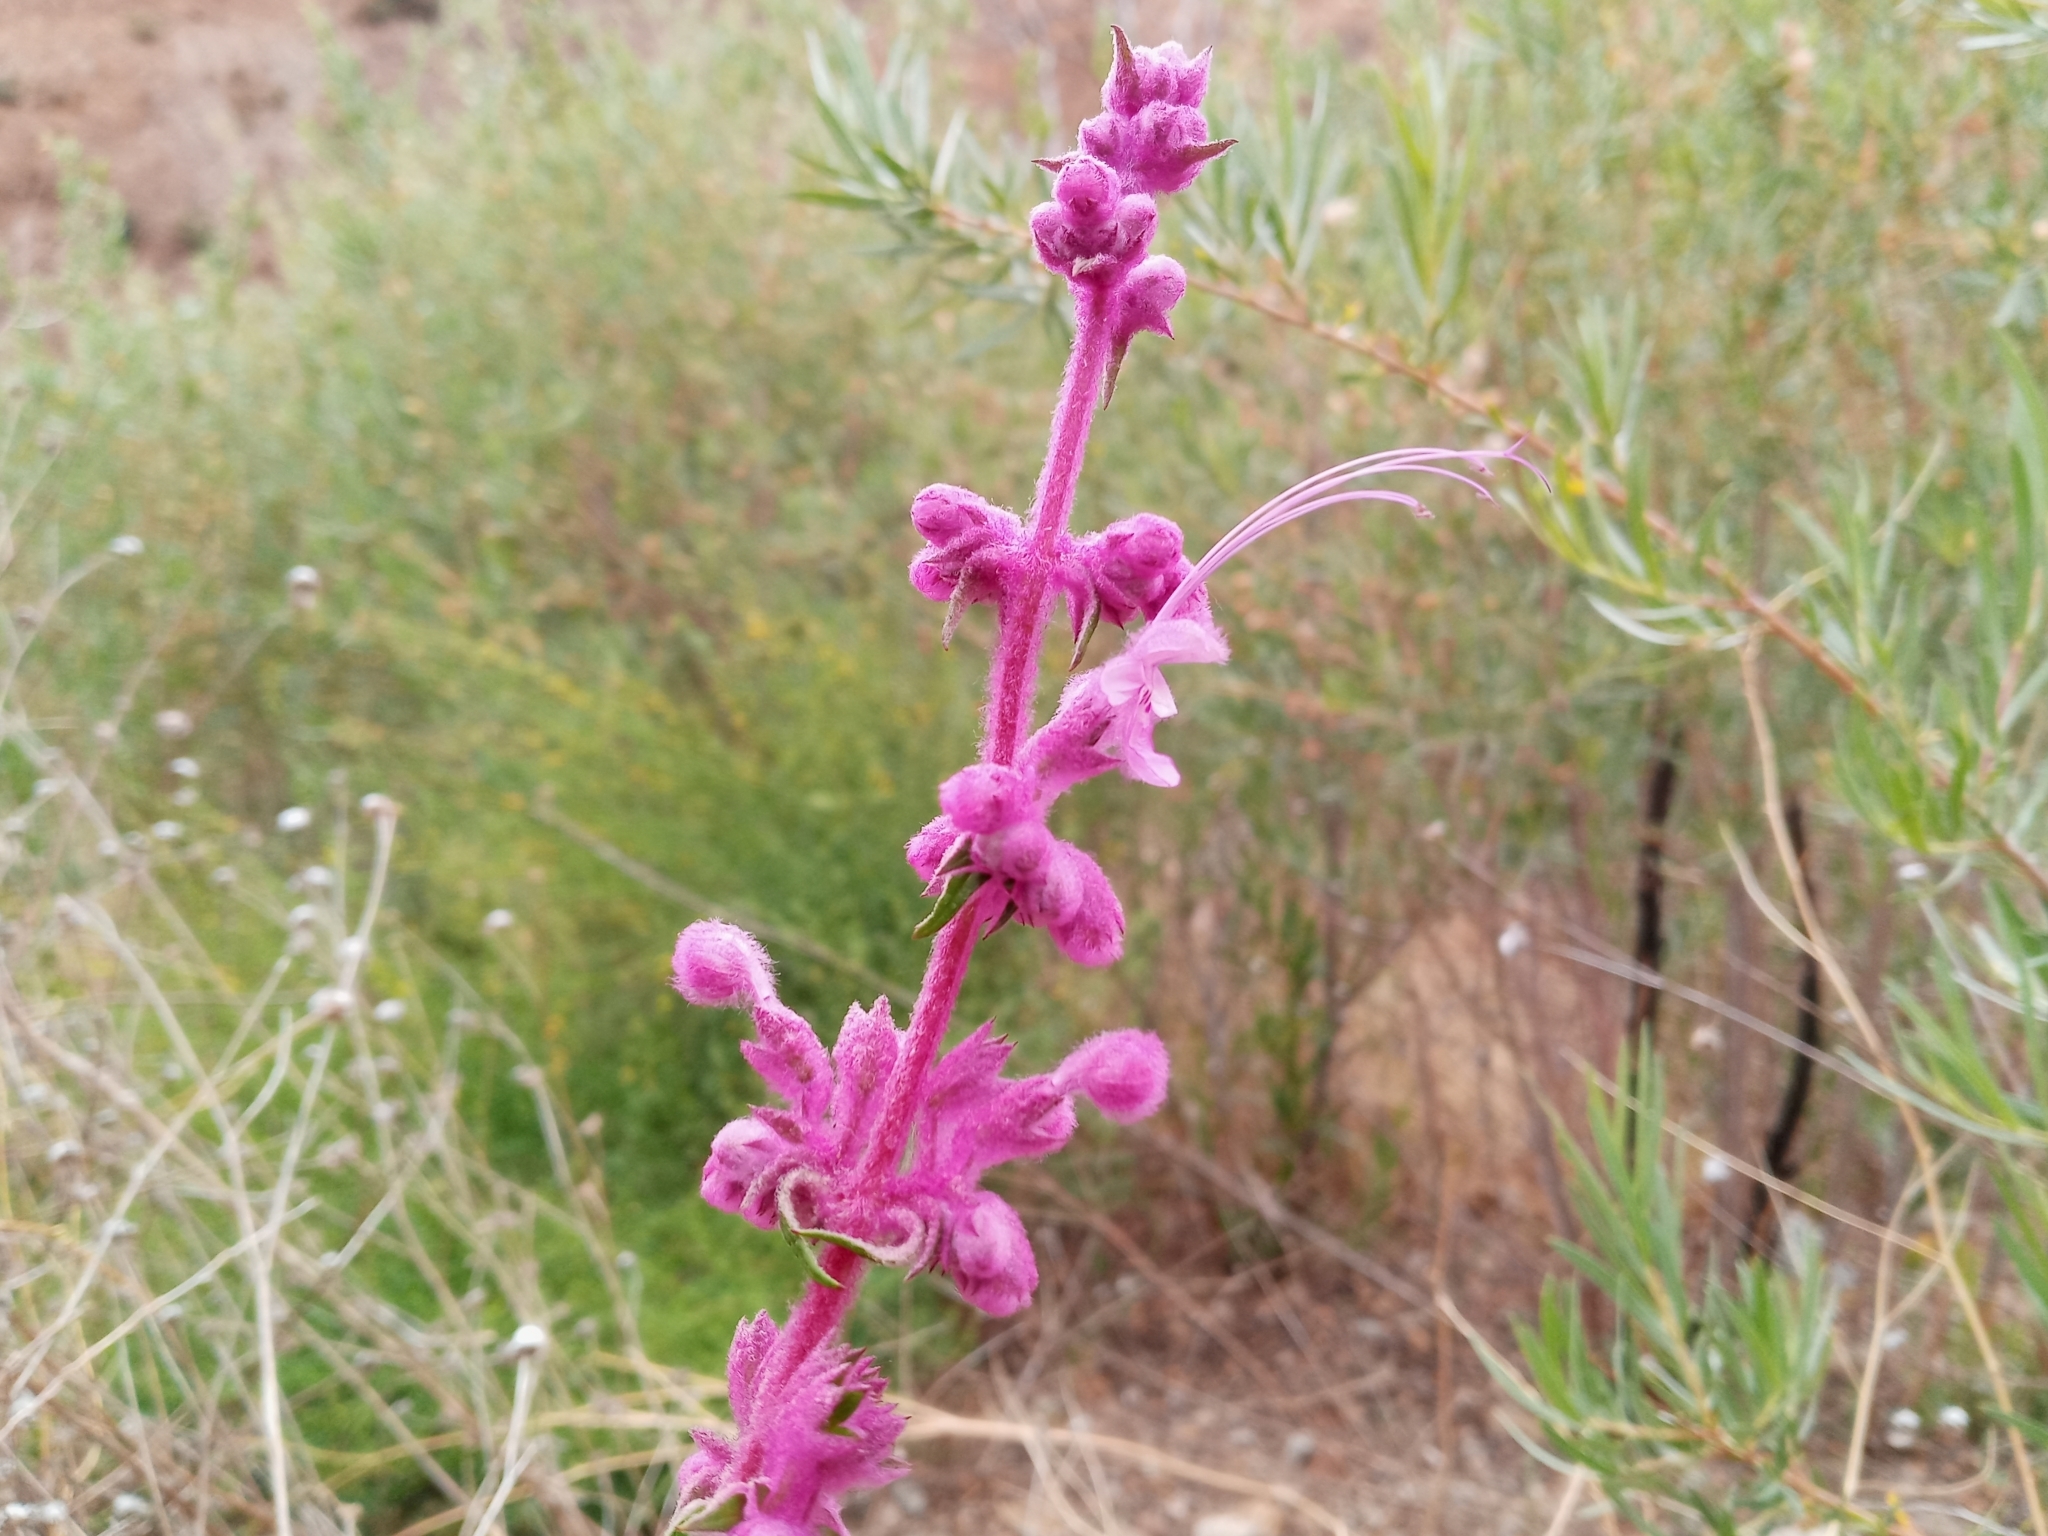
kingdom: Plantae
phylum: Tracheophyta
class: Magnoliopsida
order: Lamiales
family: Lamiaceae
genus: Trichostema
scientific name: Trichostema lanatum
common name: Woolly bluecurls
